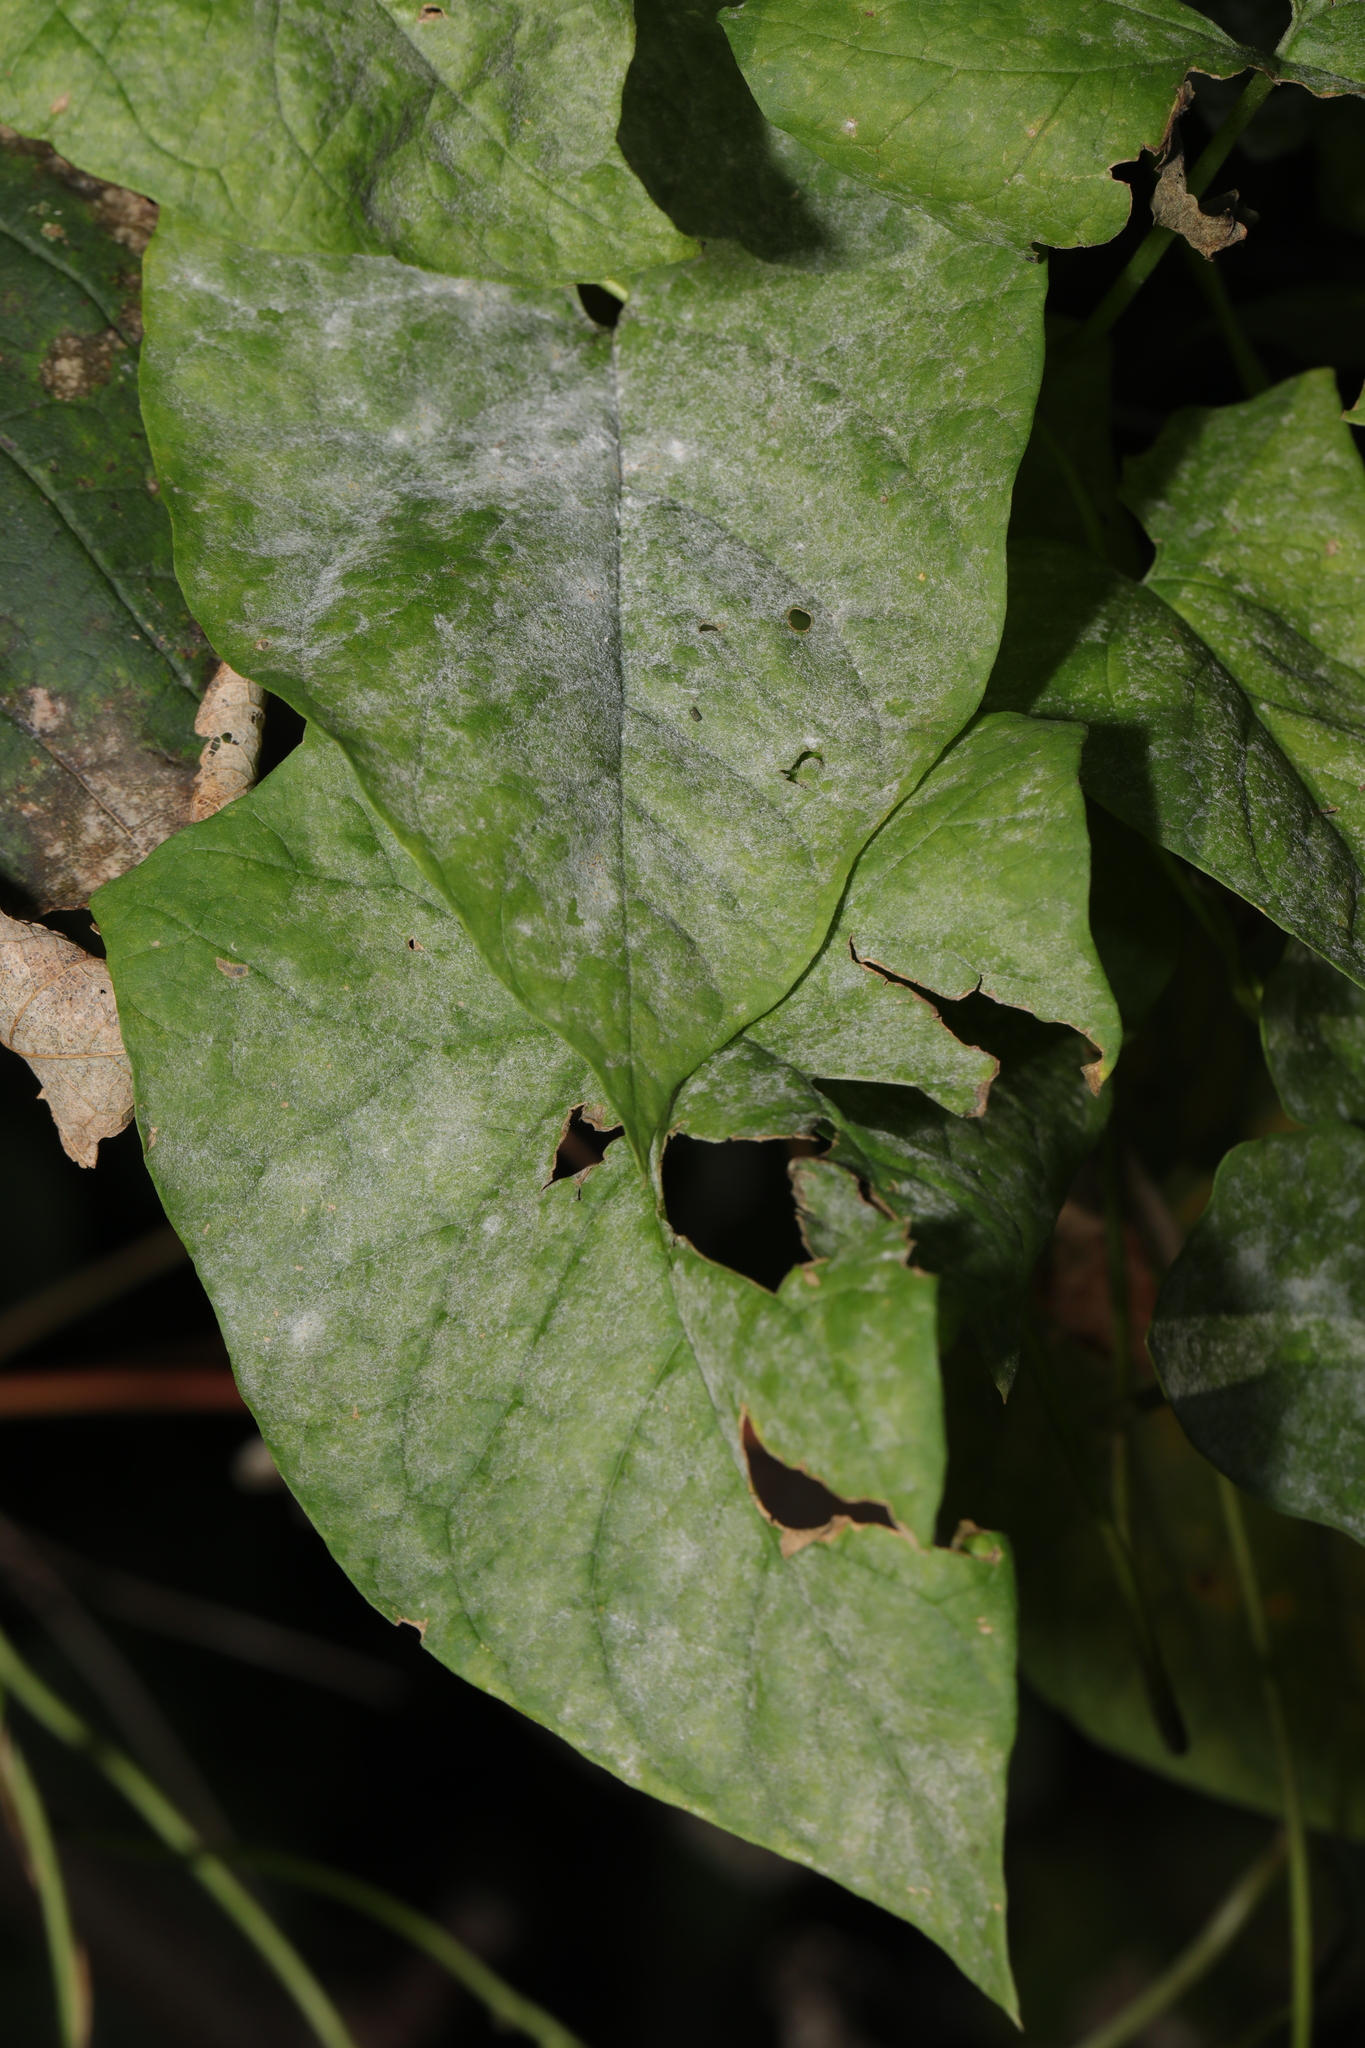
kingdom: Fungi
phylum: Ascomycota
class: Leotiomycetes
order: Helotiales
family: Erysiphaceae
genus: Erysiphe
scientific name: Erysiphe convolvuli
